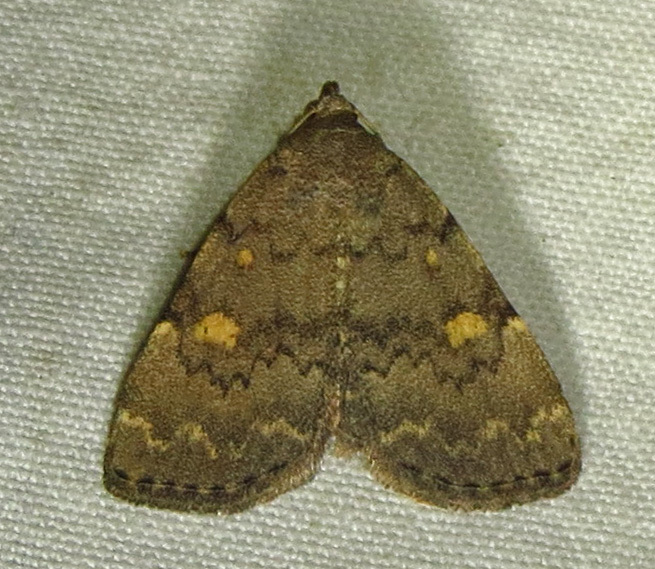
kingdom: Animalia
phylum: Arthropoda
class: Insecta
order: Lepidoptera
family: Erebidae
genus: Idia
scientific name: Idia aemula
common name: Common idia moth
